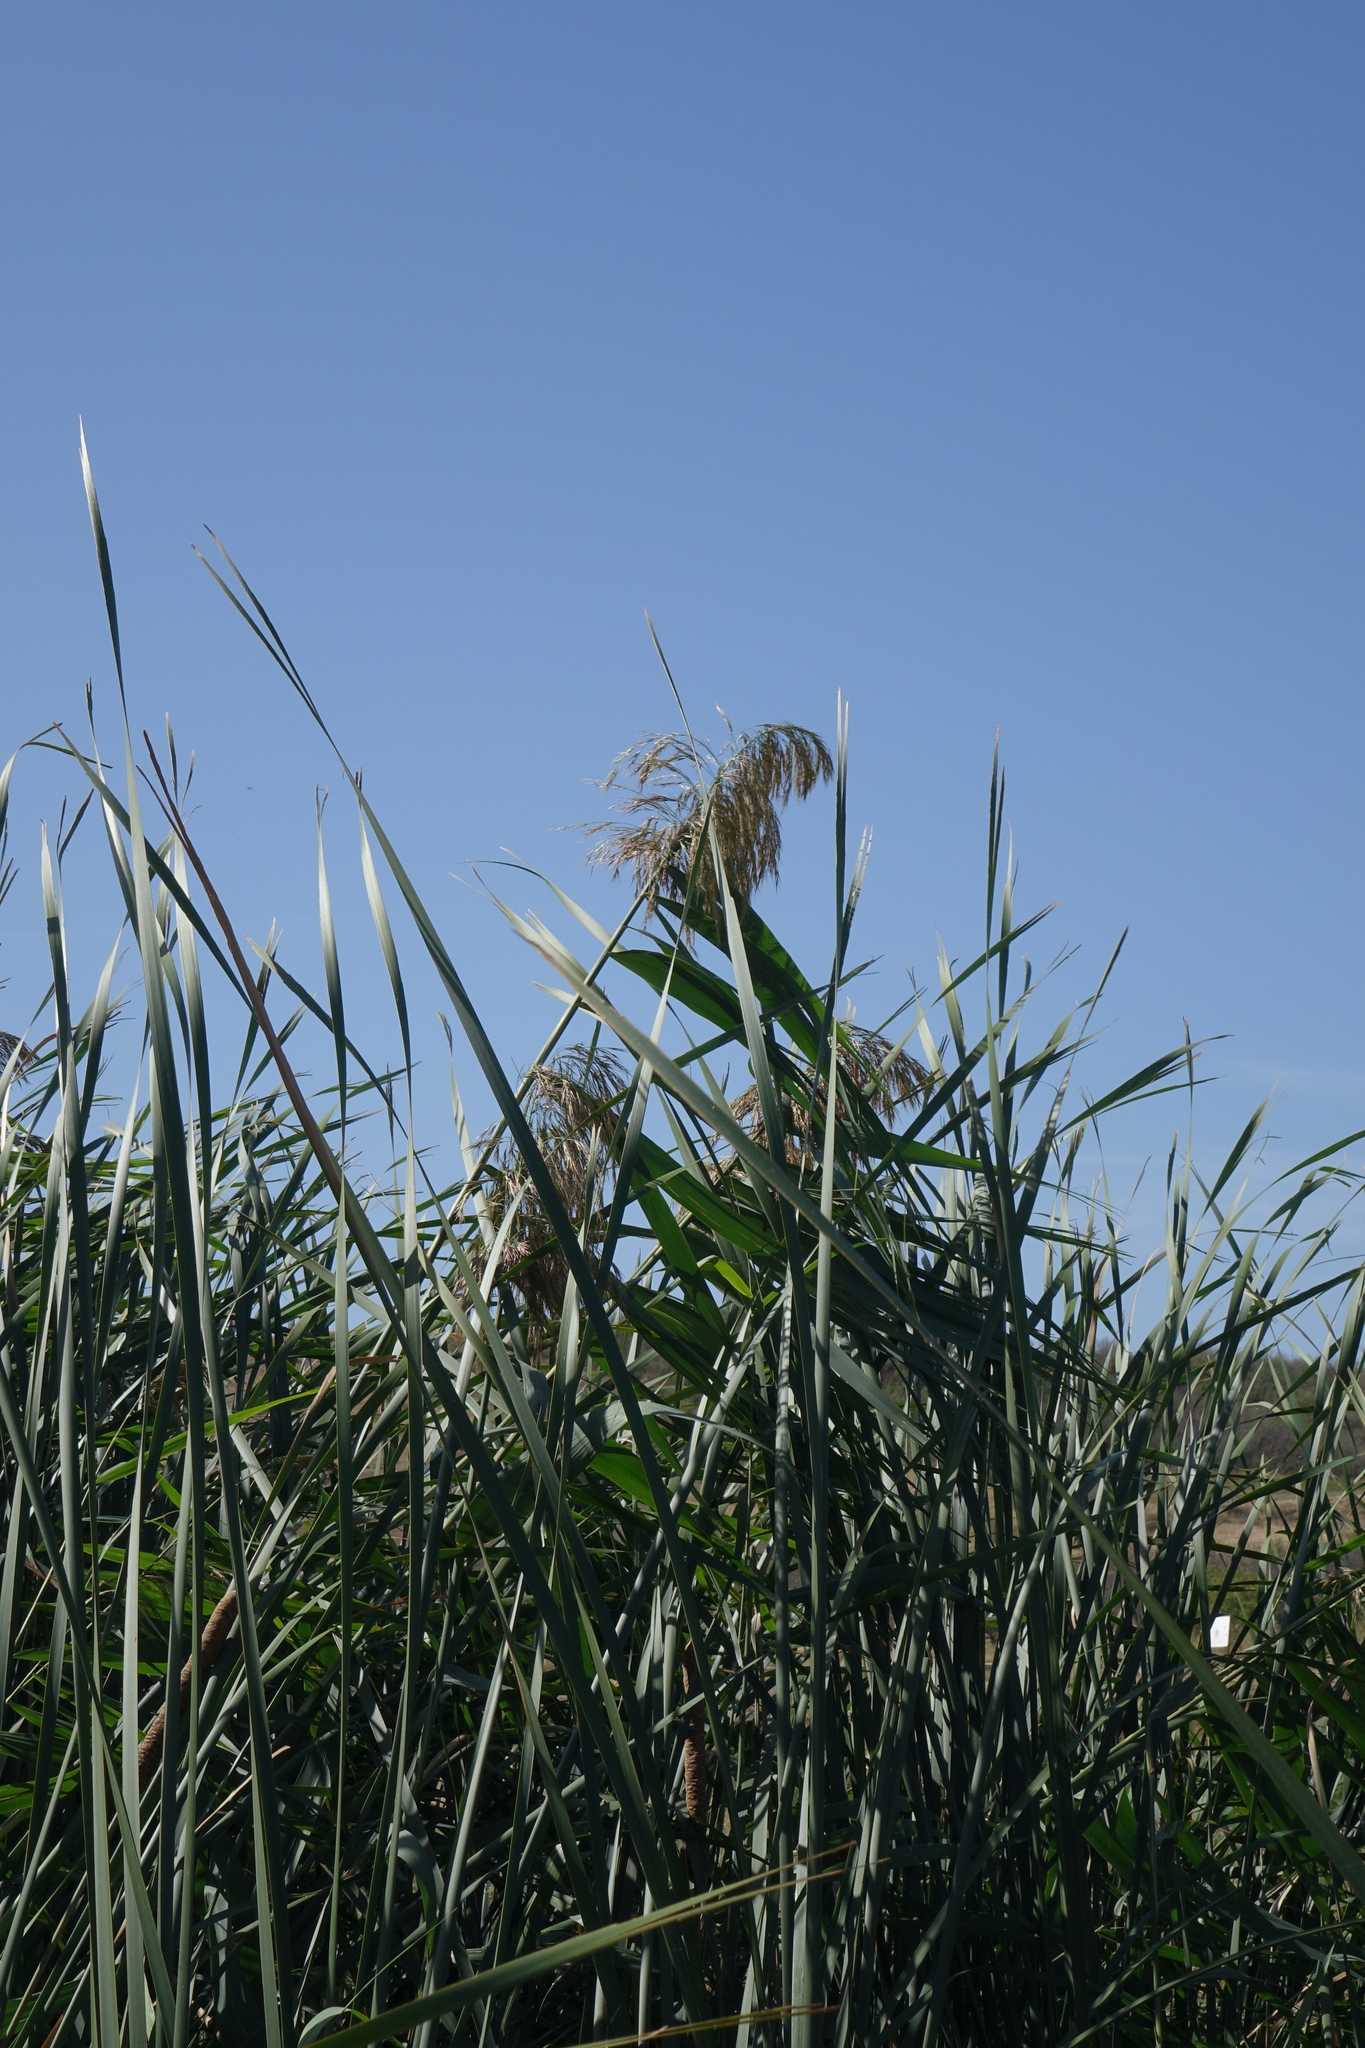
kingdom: Plantae
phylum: Tracheophyta
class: Liliopsida
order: Poales
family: Poaceae
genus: Phragmites
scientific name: Phragmites australis
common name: Common reed
